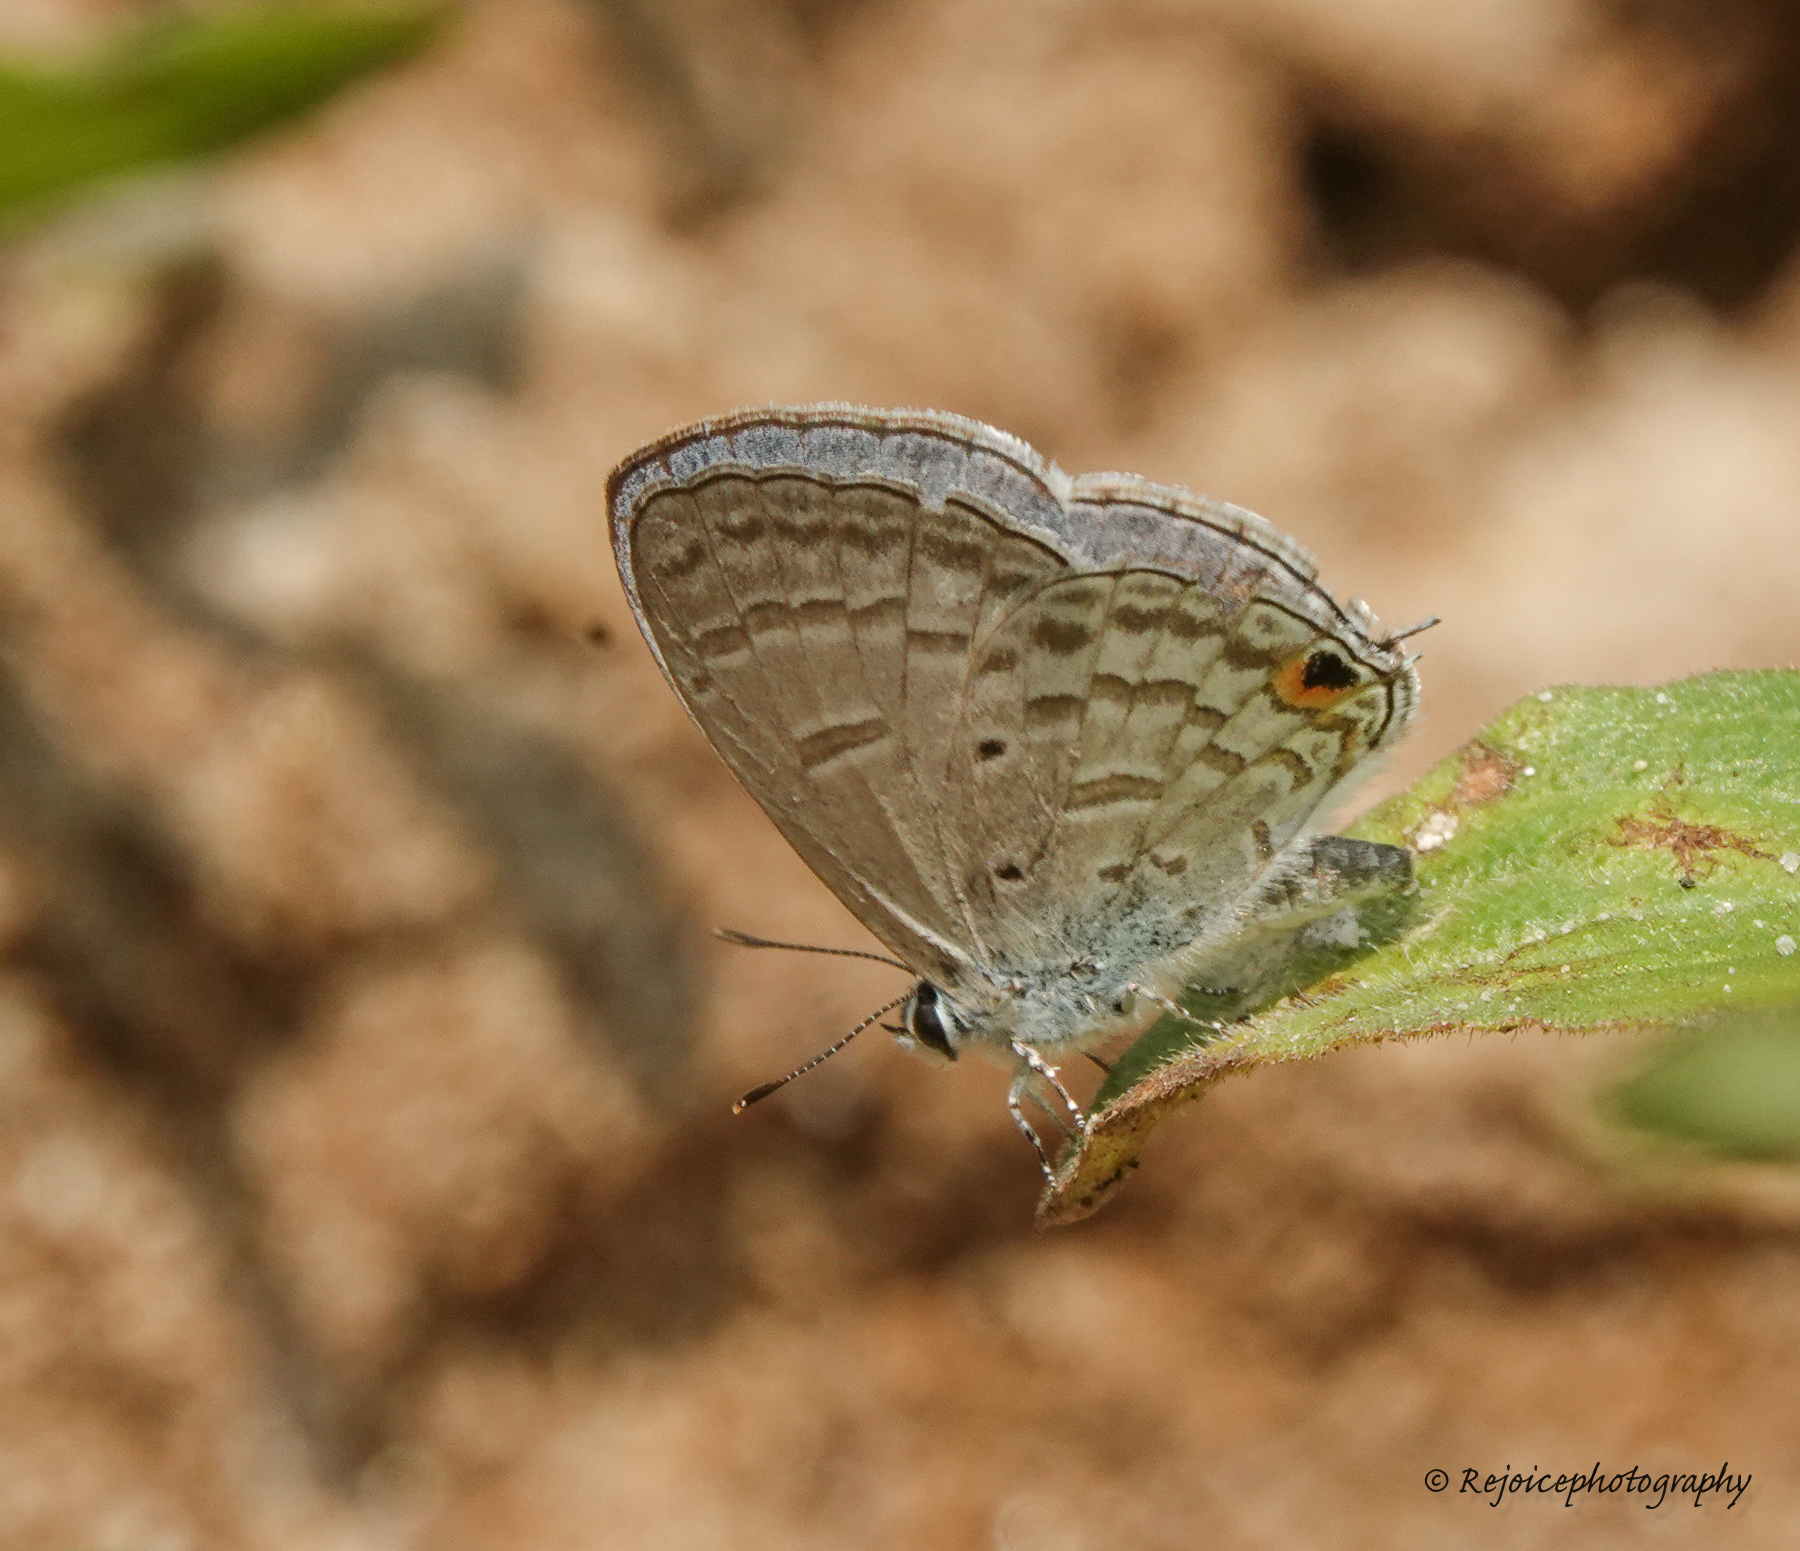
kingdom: Animalia
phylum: Arthropoda
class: Insecta
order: Lepidoptera
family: Lycaenidae
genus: Catochrysops
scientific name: Catochrysops panormus
